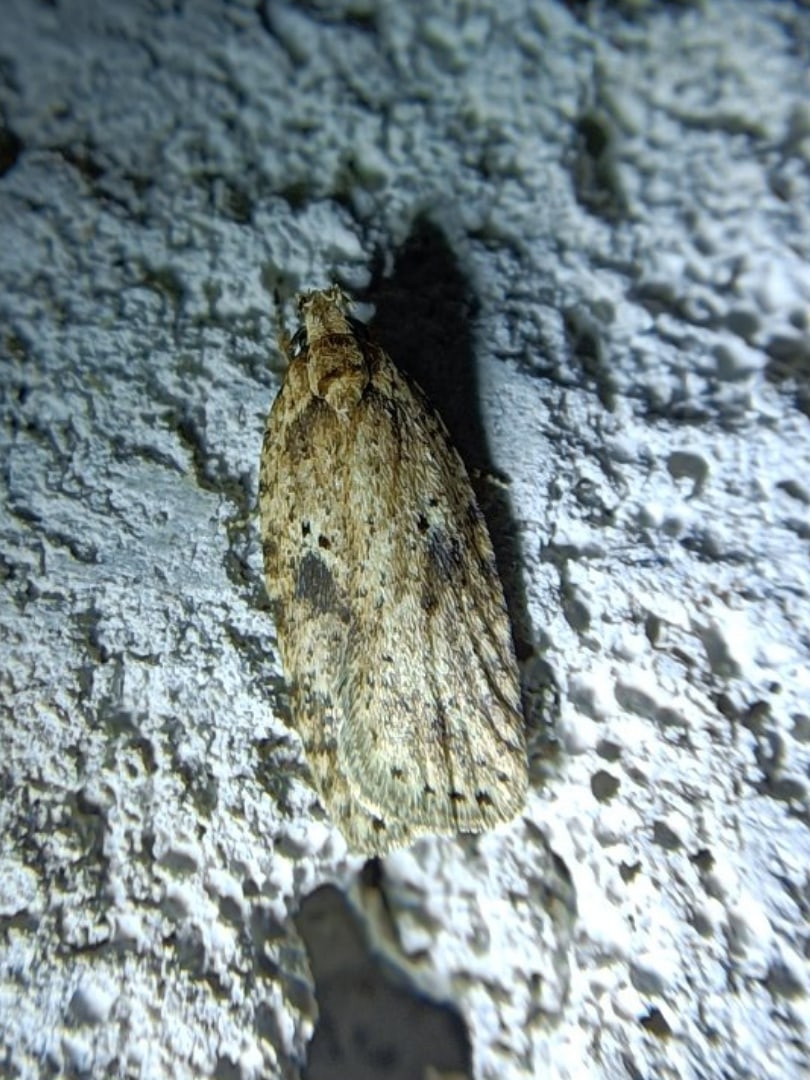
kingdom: Animalia
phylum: Arthropoda
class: Insecta
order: Lepidoptera
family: Depressariidae
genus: Agonopterix
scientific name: Agonopterix arenella
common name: Brindled flat-body
